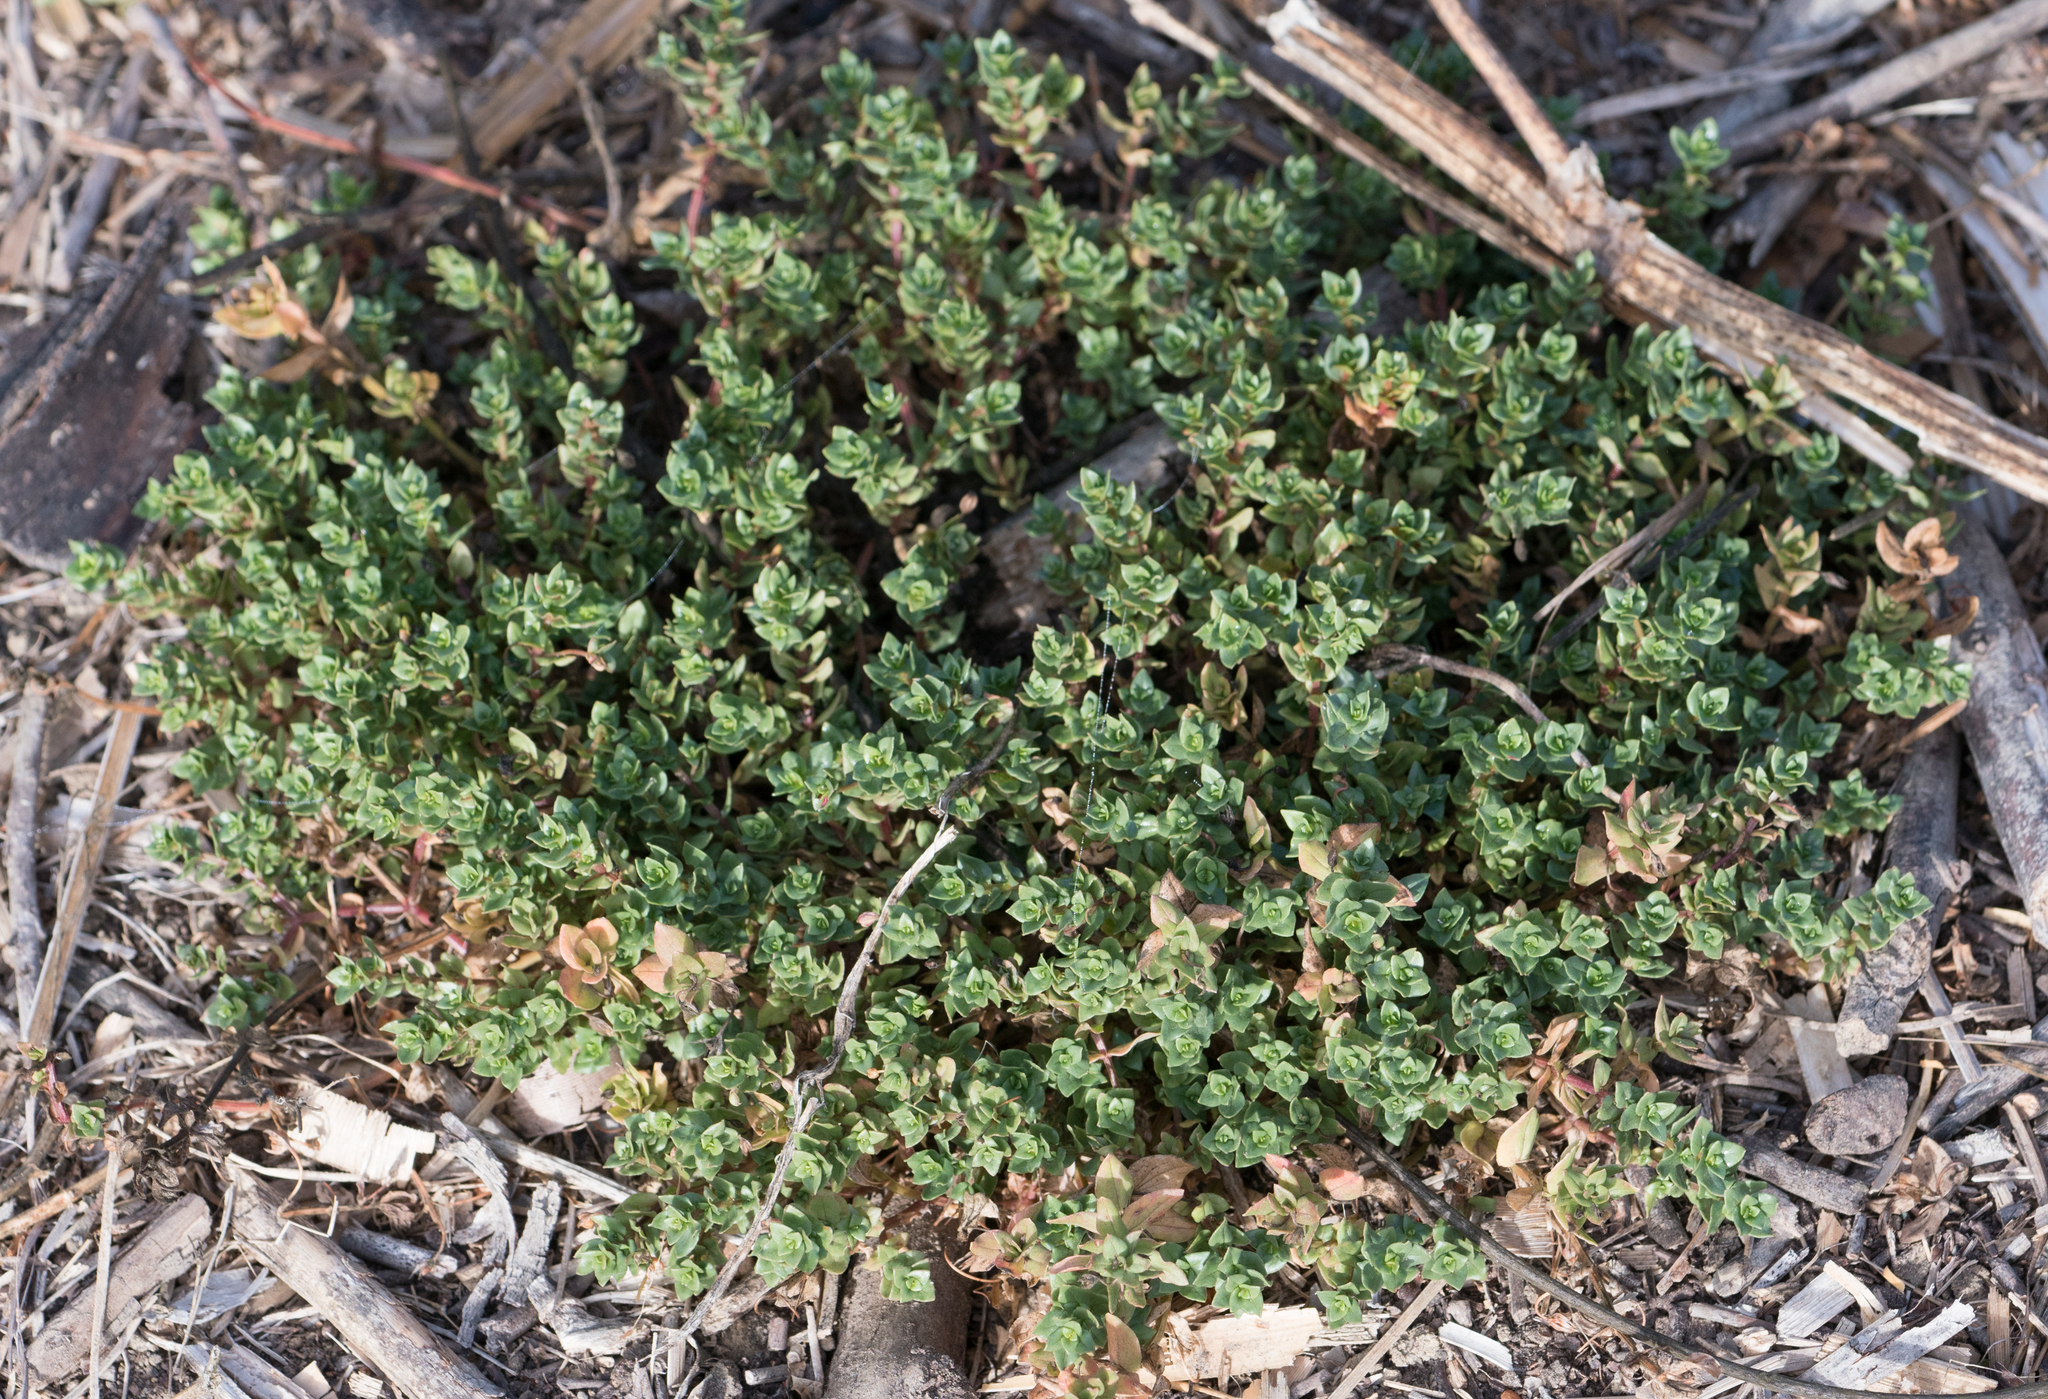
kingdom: Plantae
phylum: Tracheophyta
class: Magnoliopsida
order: Ericales
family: Primulaceae
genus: Lysimachia
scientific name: Lysimachia arvensis
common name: Scarlet pimpernel
